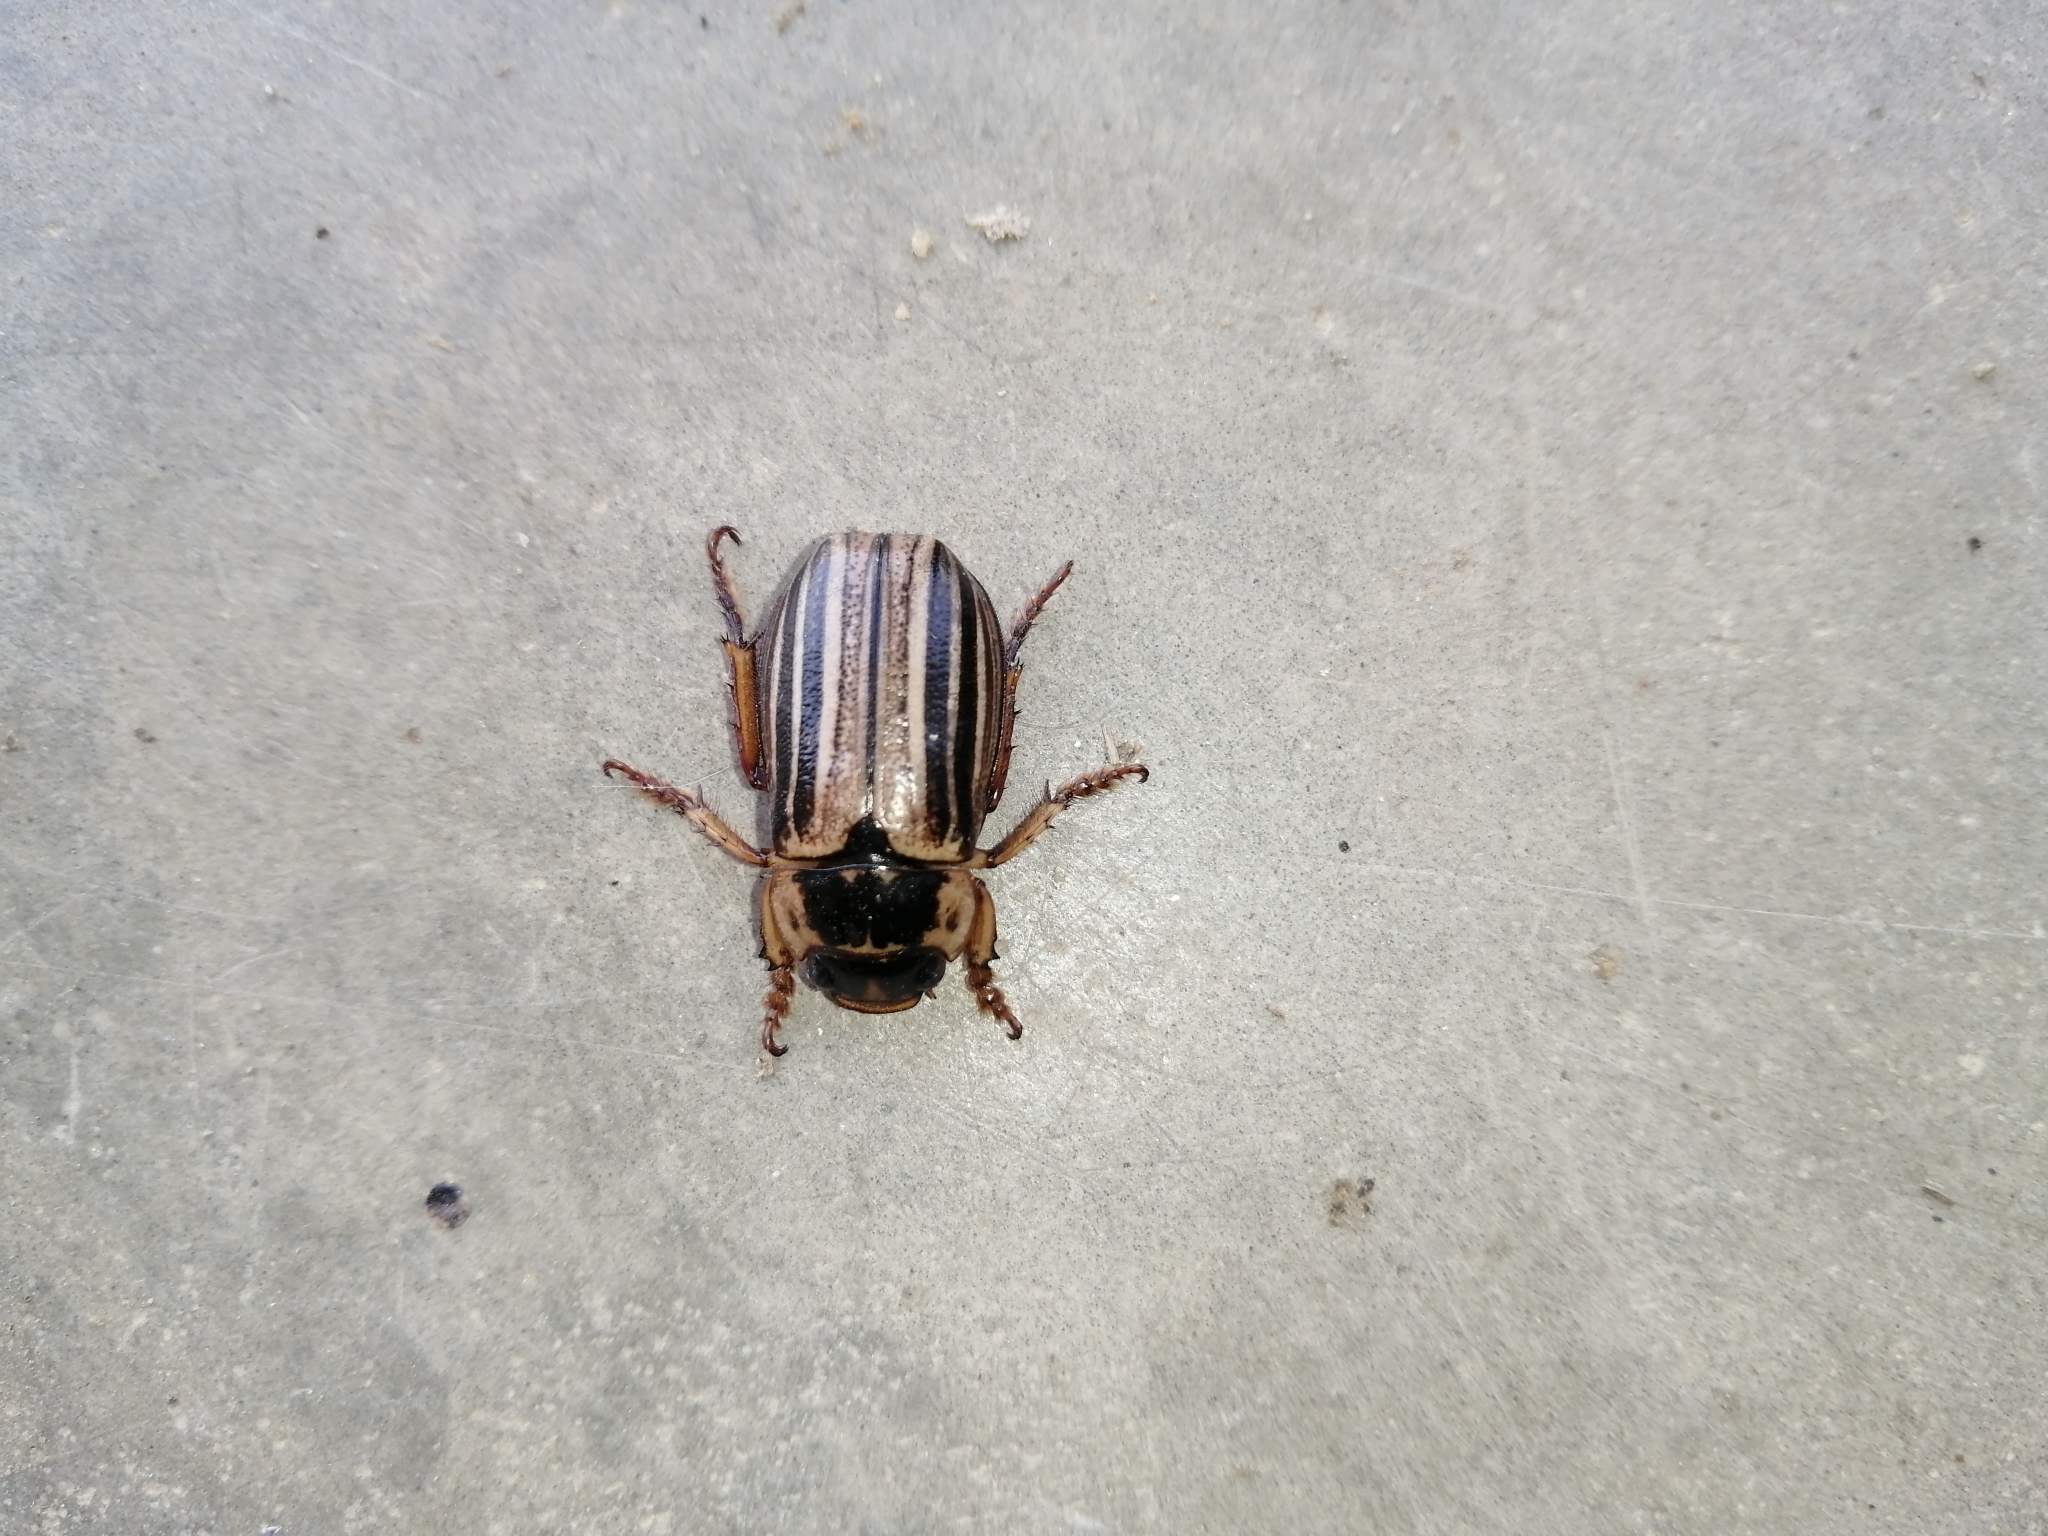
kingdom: Animalia
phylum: Arthropoda
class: Insecta
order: Coleoptera
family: Scarabaeidae
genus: Trizogeniates
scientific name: Trizogeniates foveicollis
